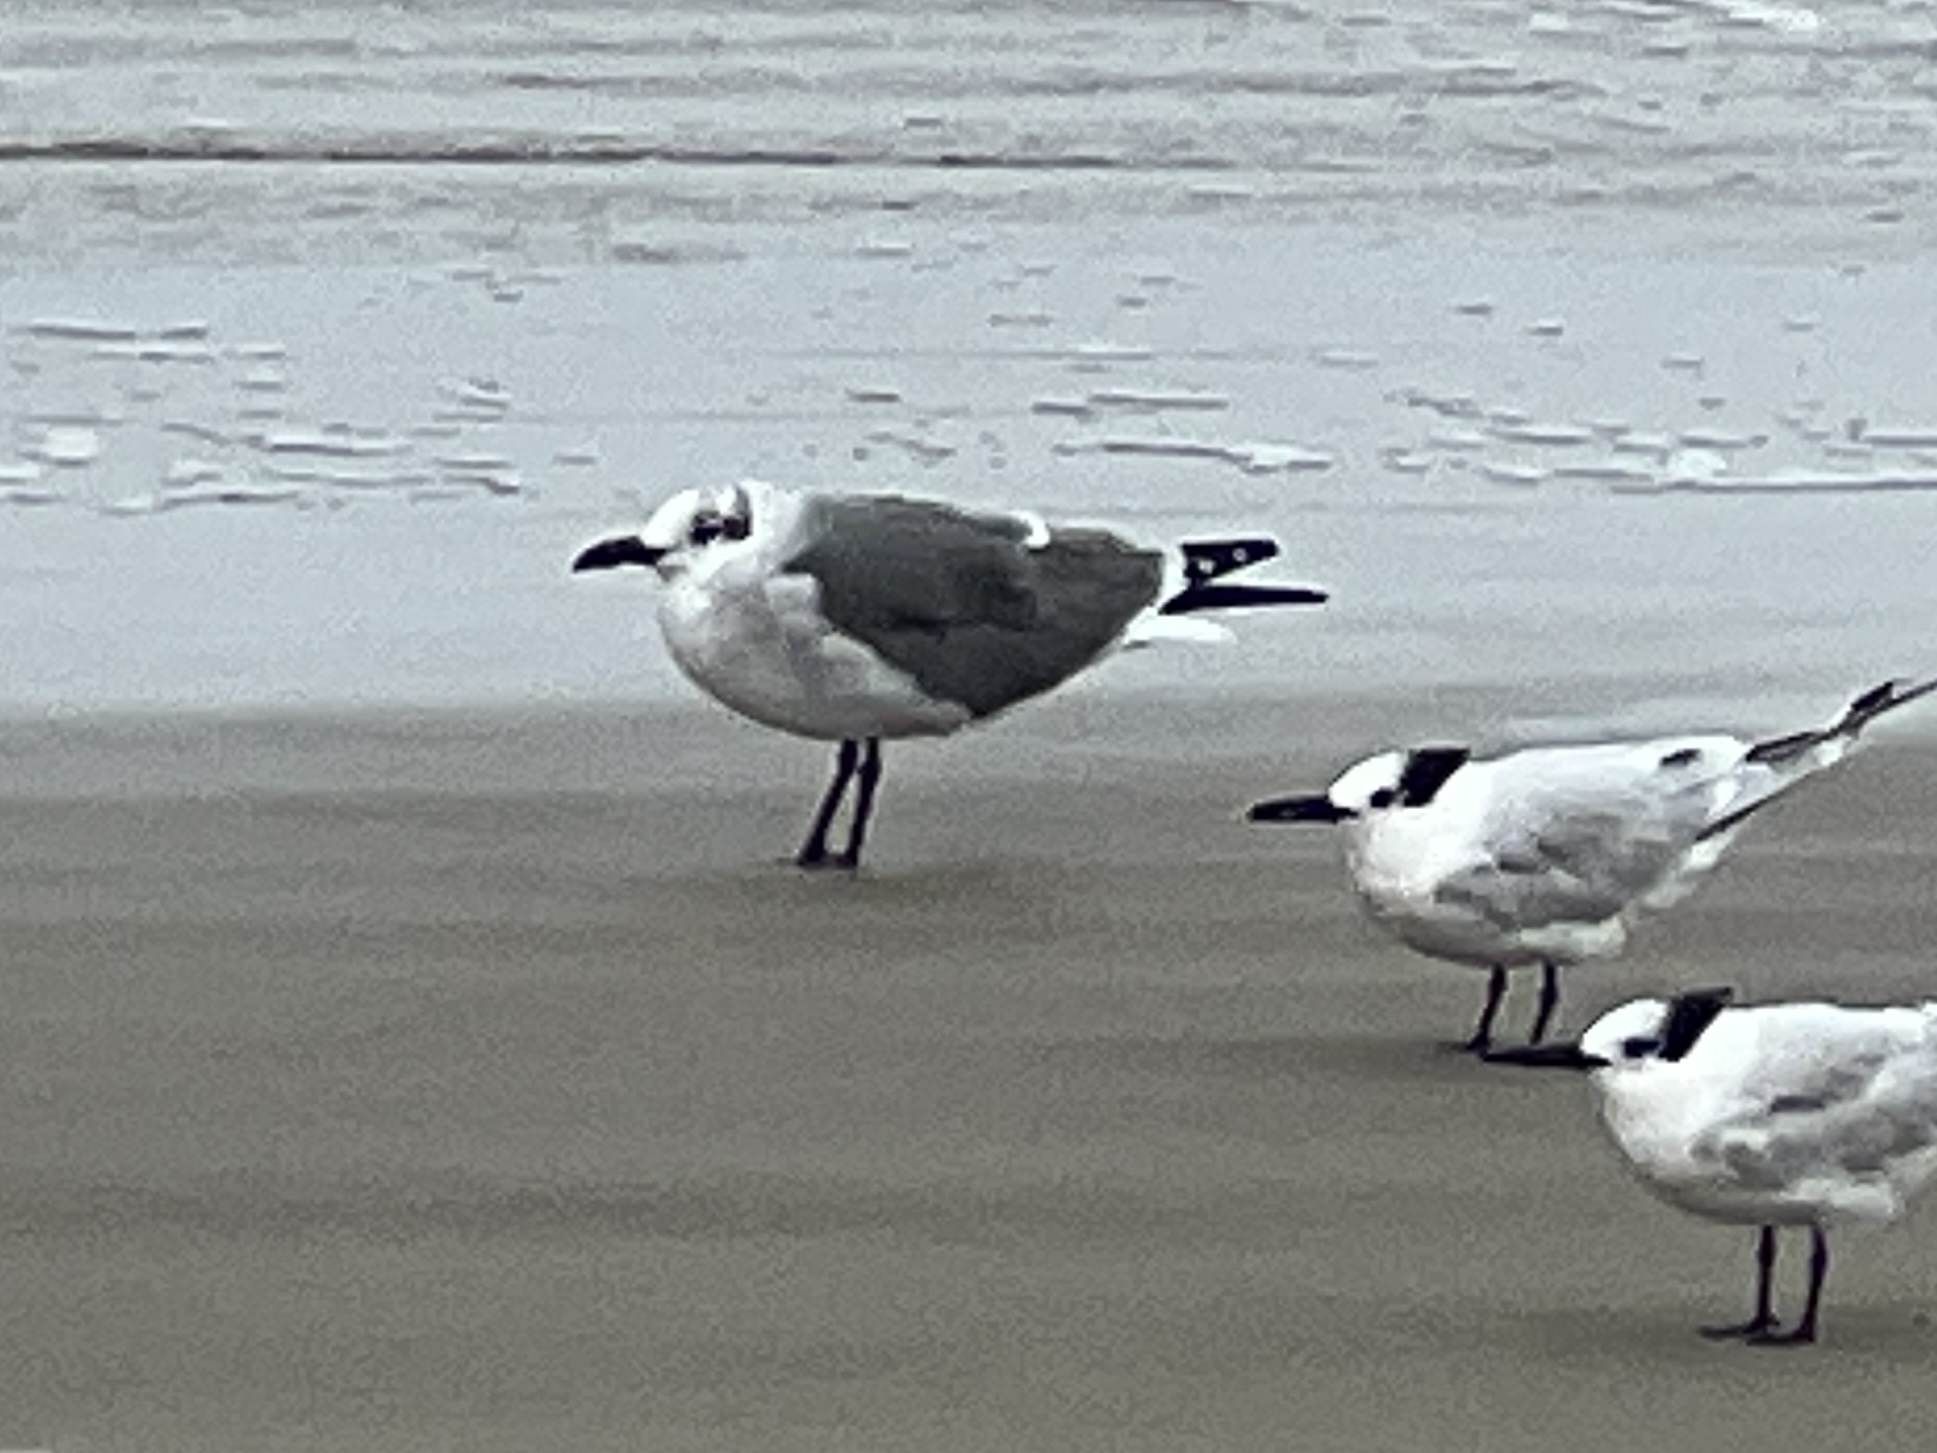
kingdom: Animalia
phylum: Chordata
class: Aves
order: Charadriiformes
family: Laridae
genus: Leucophaeus
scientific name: Leucophaeus atricilla
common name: Laughing gull
